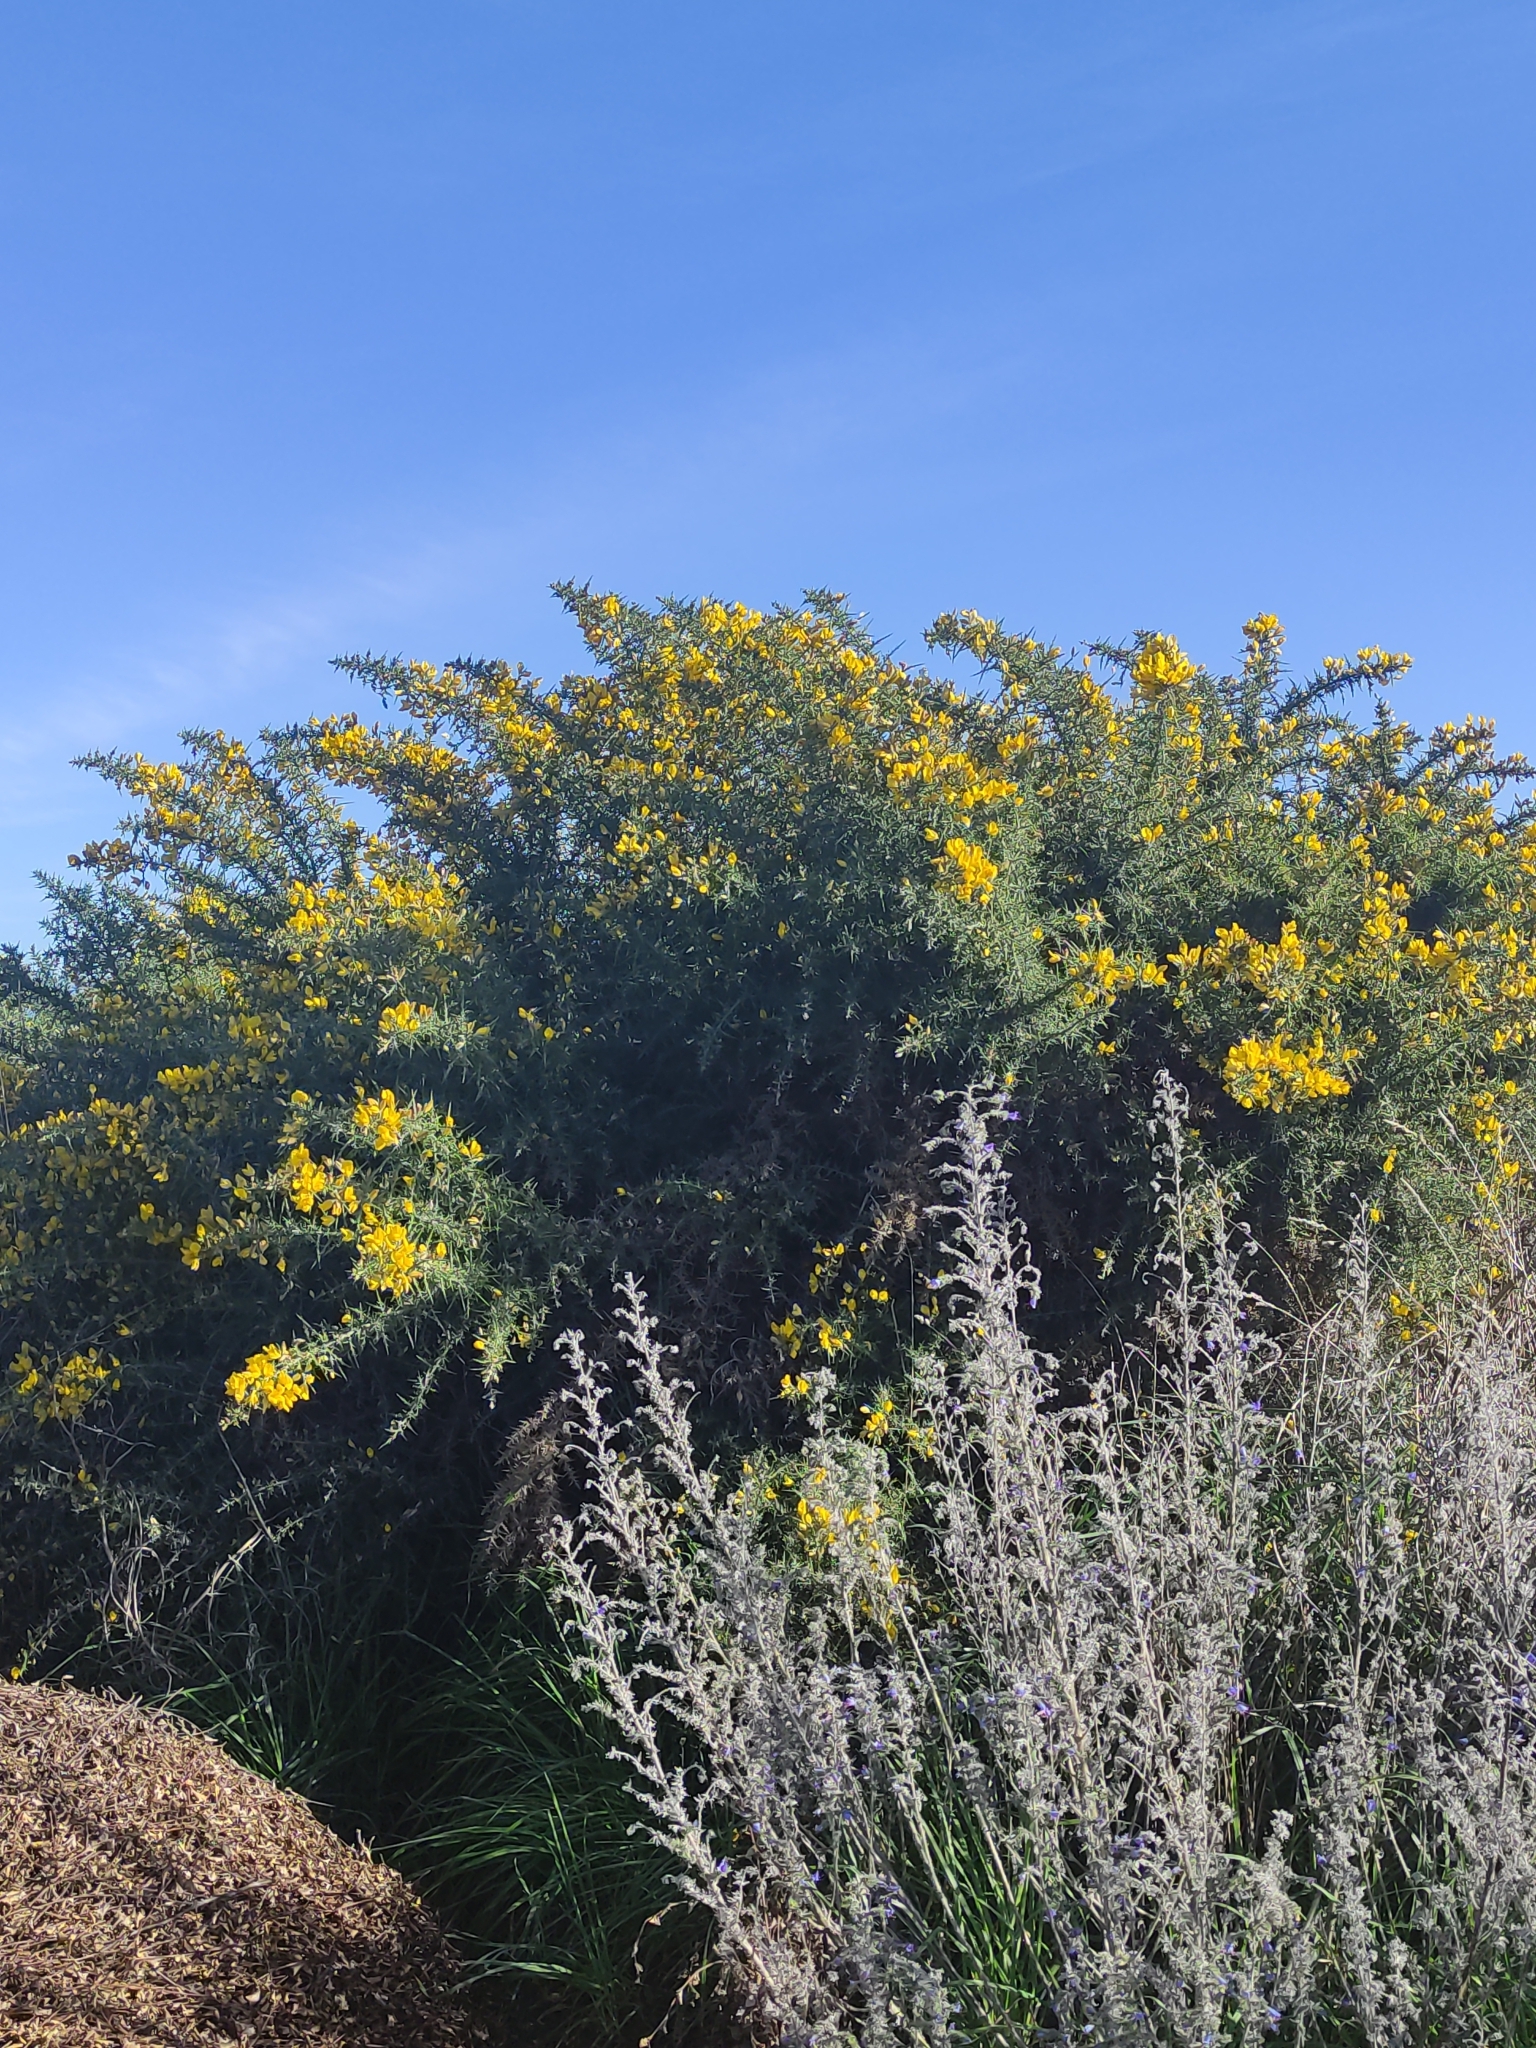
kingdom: Plantae
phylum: Tracheophyta
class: Magnoliopsida
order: Fabales
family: Fabaceae
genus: Ulex
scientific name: Ulex europaeus
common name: Common gorse
